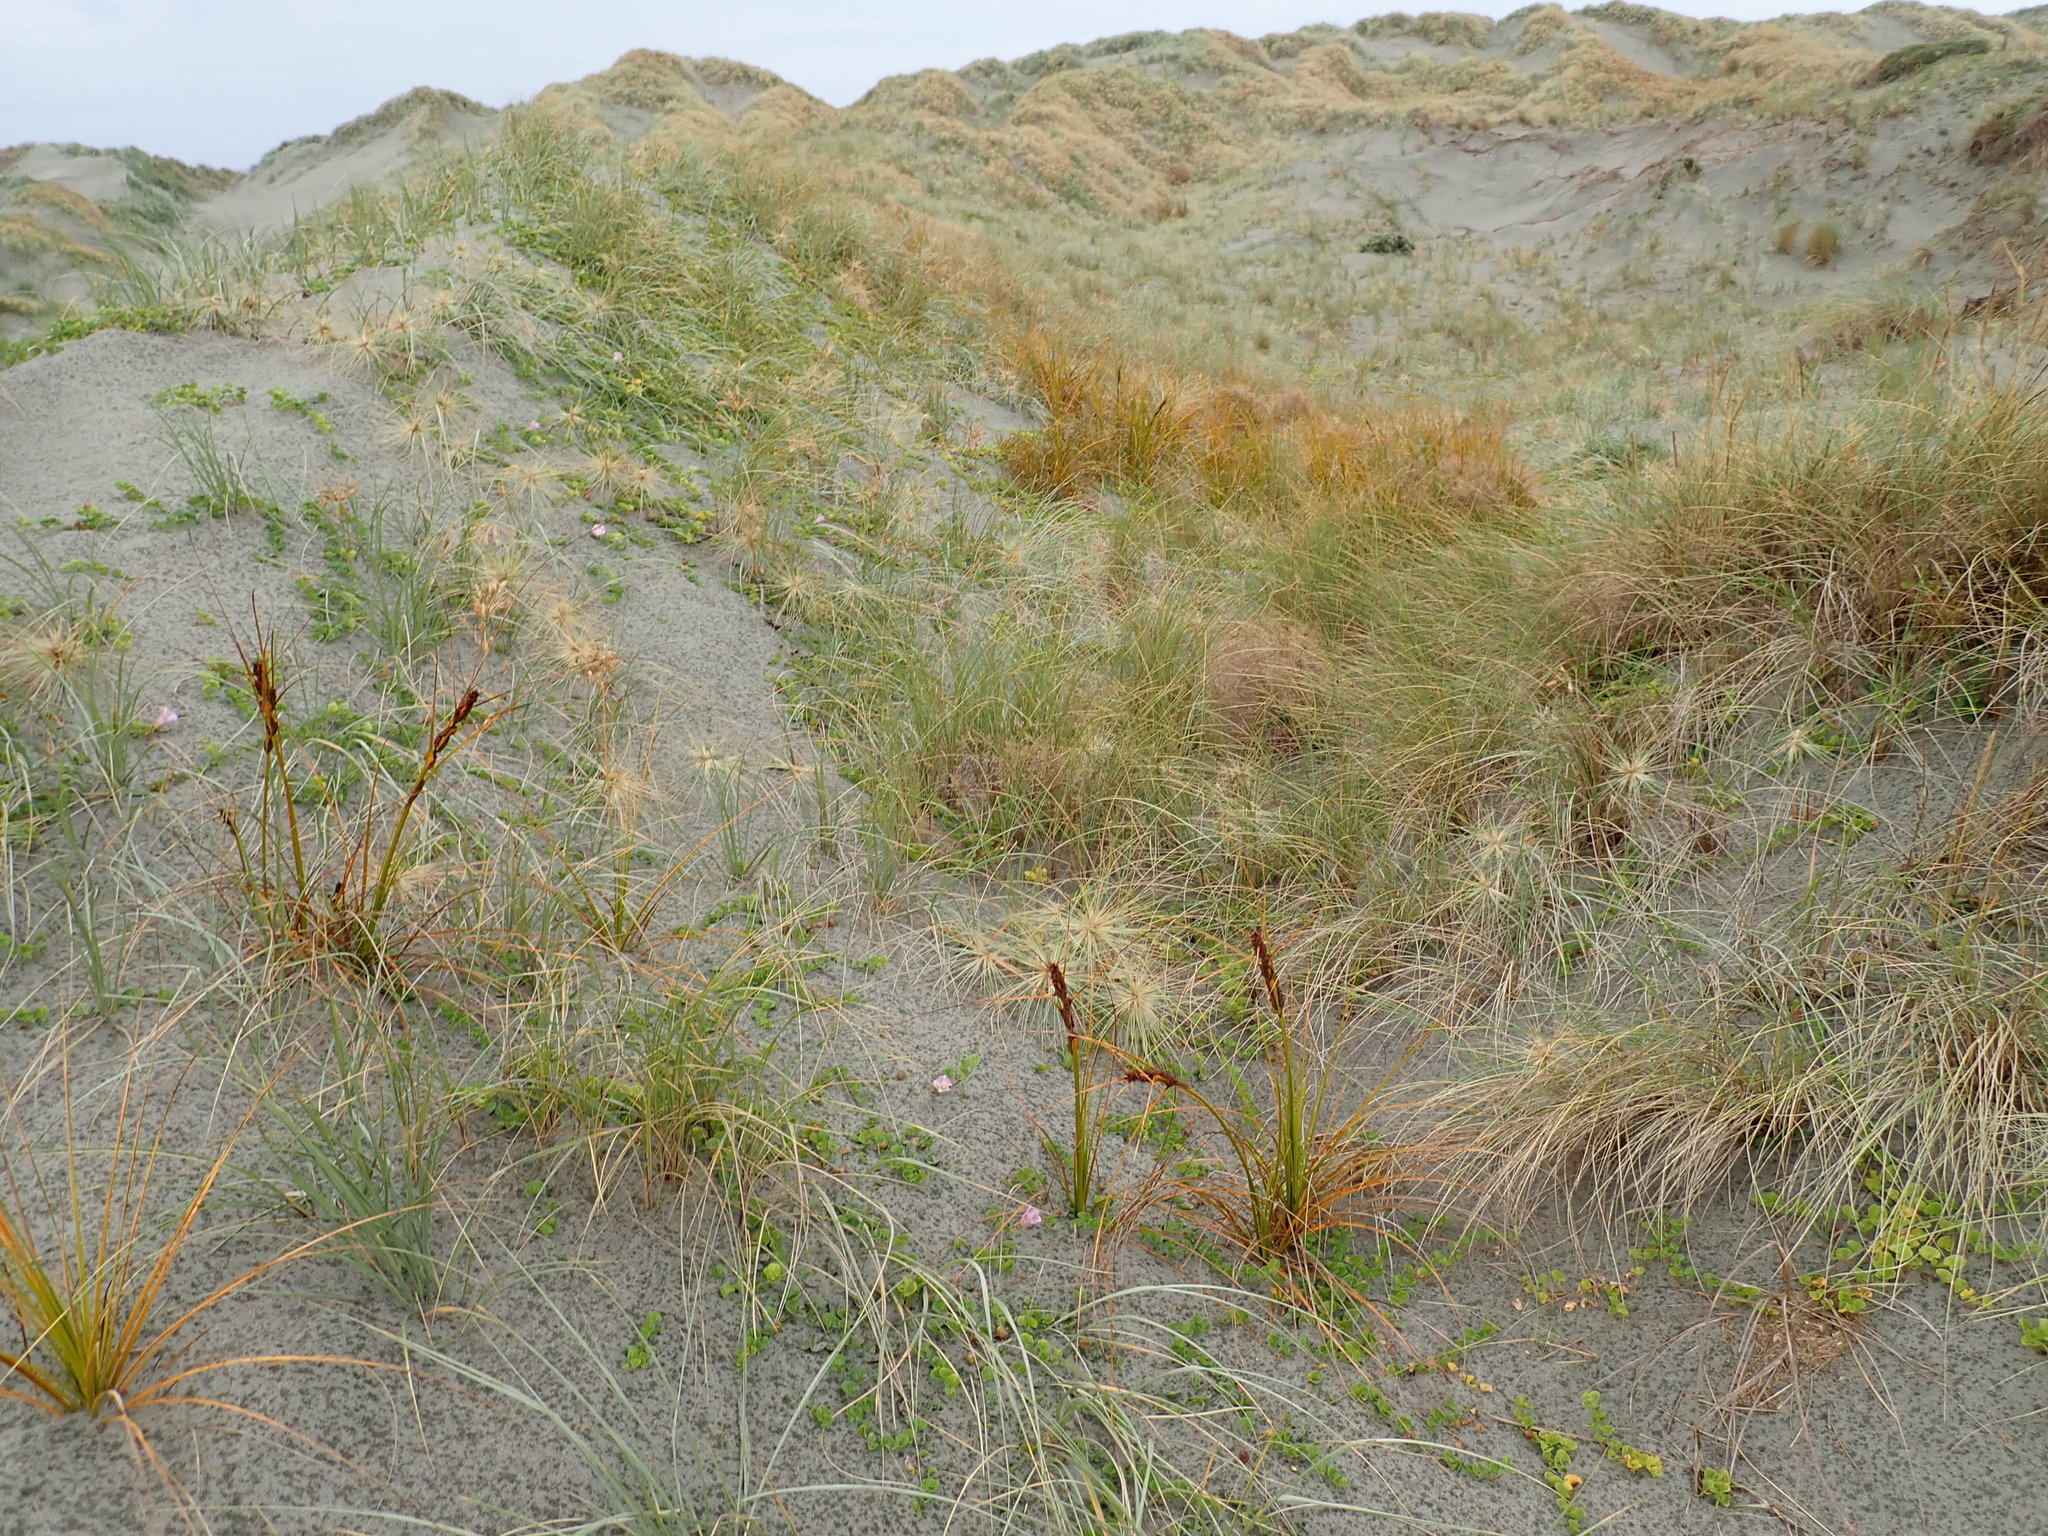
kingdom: Plantae
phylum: Tracheophyta
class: Liliopsida
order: Poales
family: Cyperaceae
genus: Ficinia
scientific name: Ficinia spiralis
